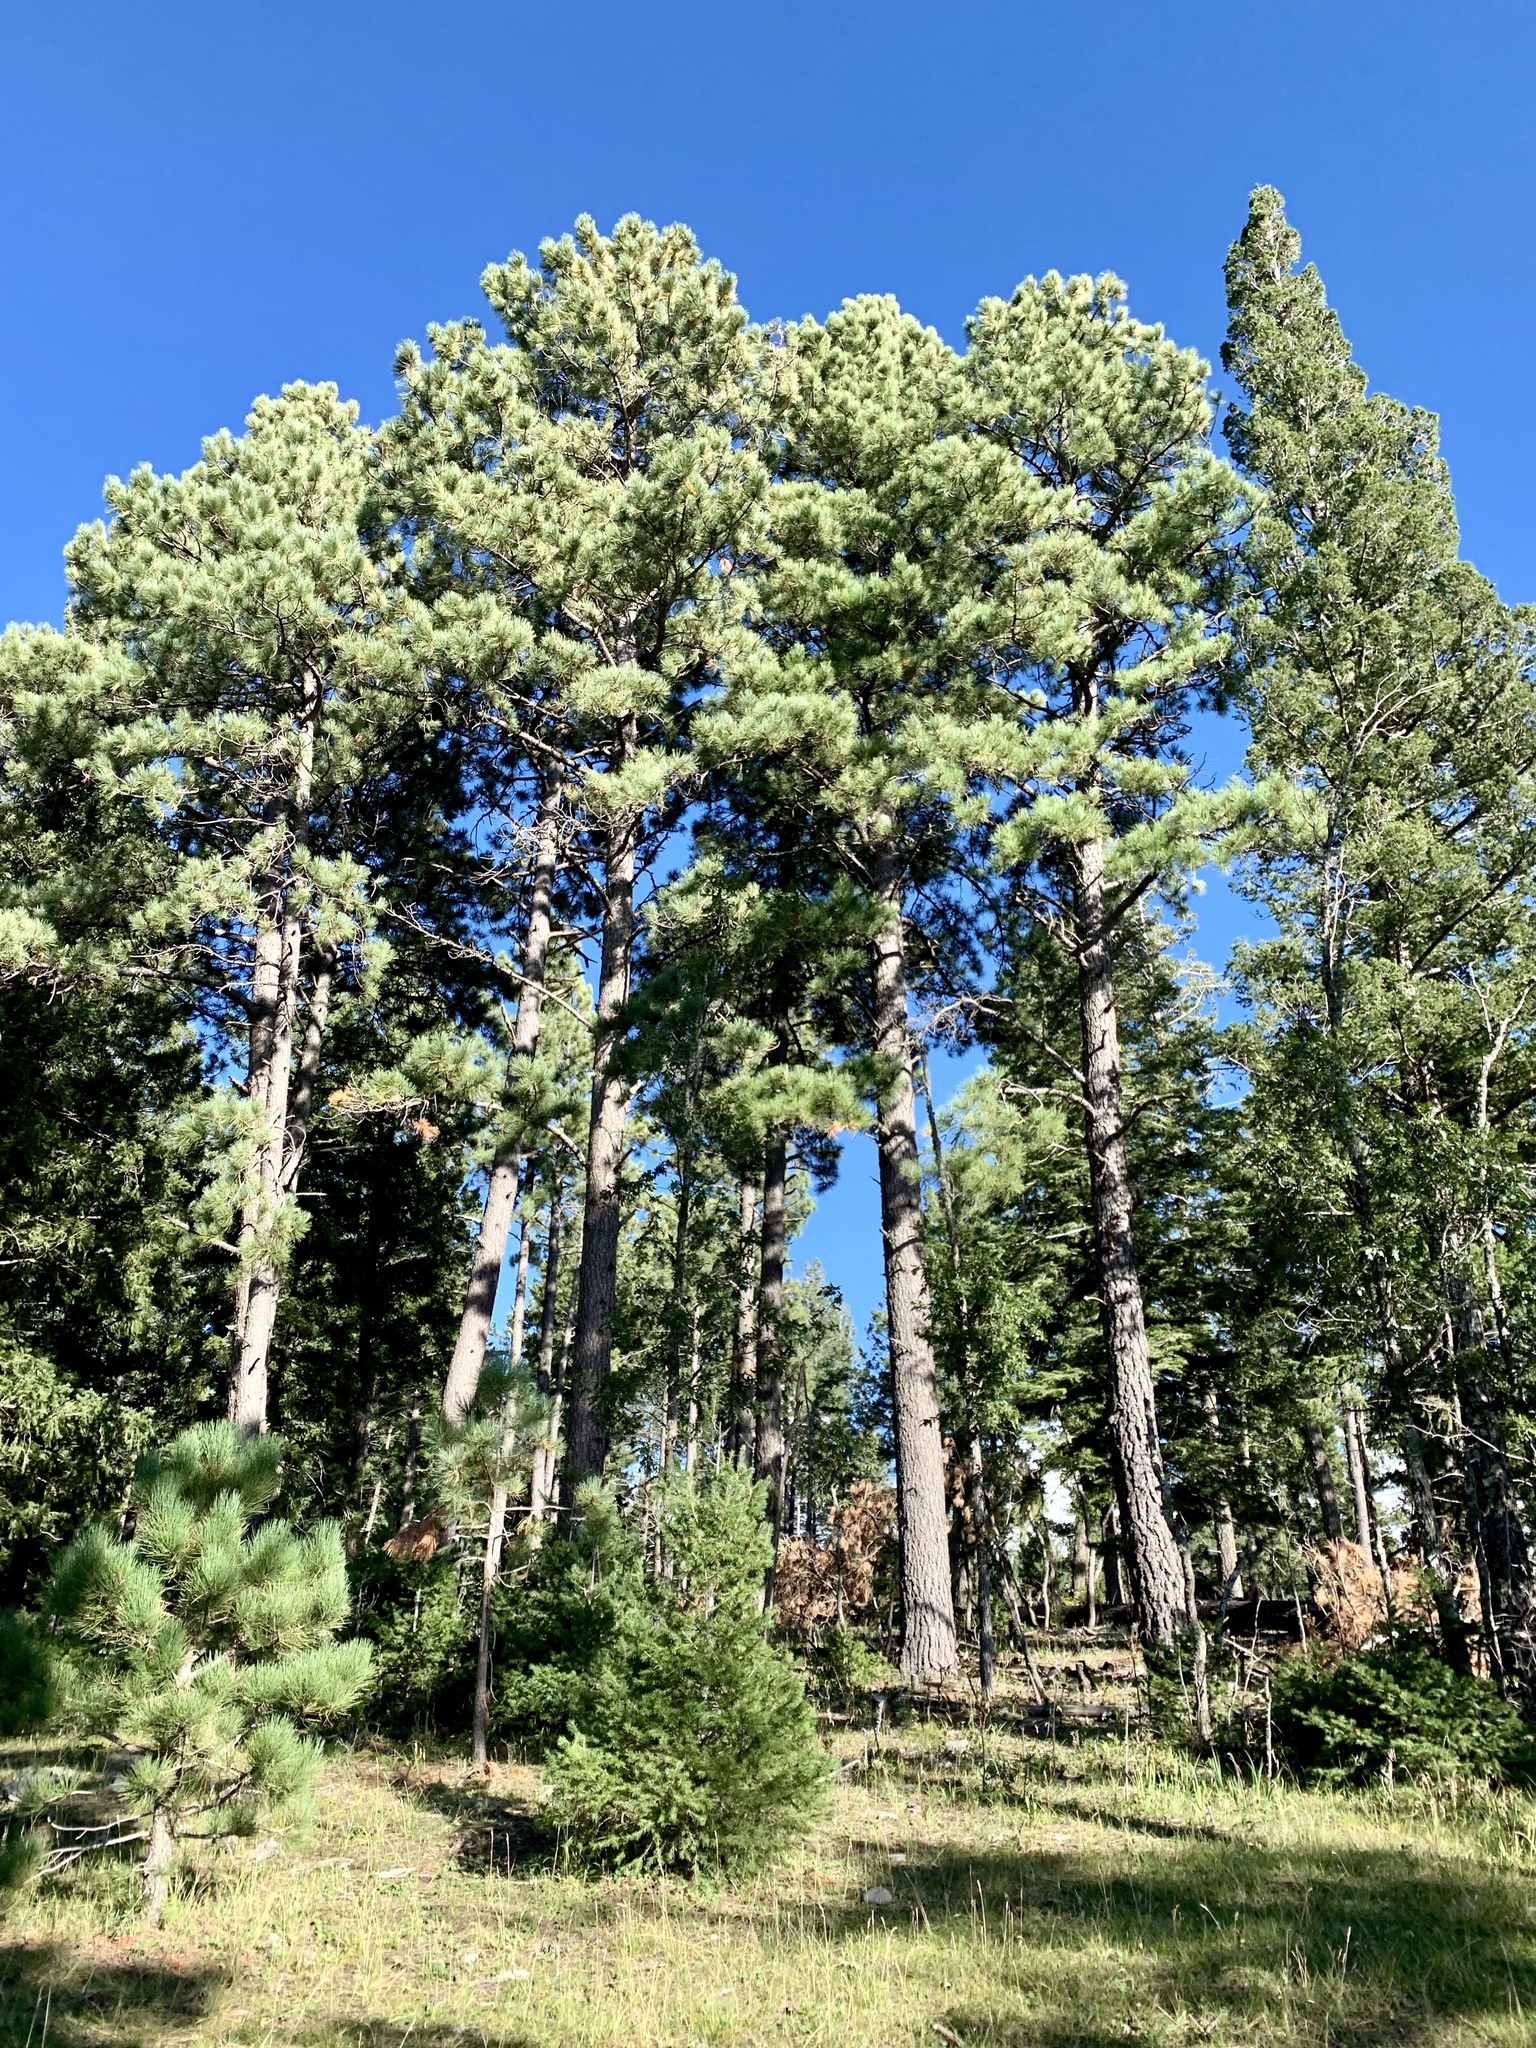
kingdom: Plantae
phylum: Tracheophyta
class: Pinopsida
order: Pinales
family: Pinaceae
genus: Pinus
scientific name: Pinus ponderosa
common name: Western yellow-pine
